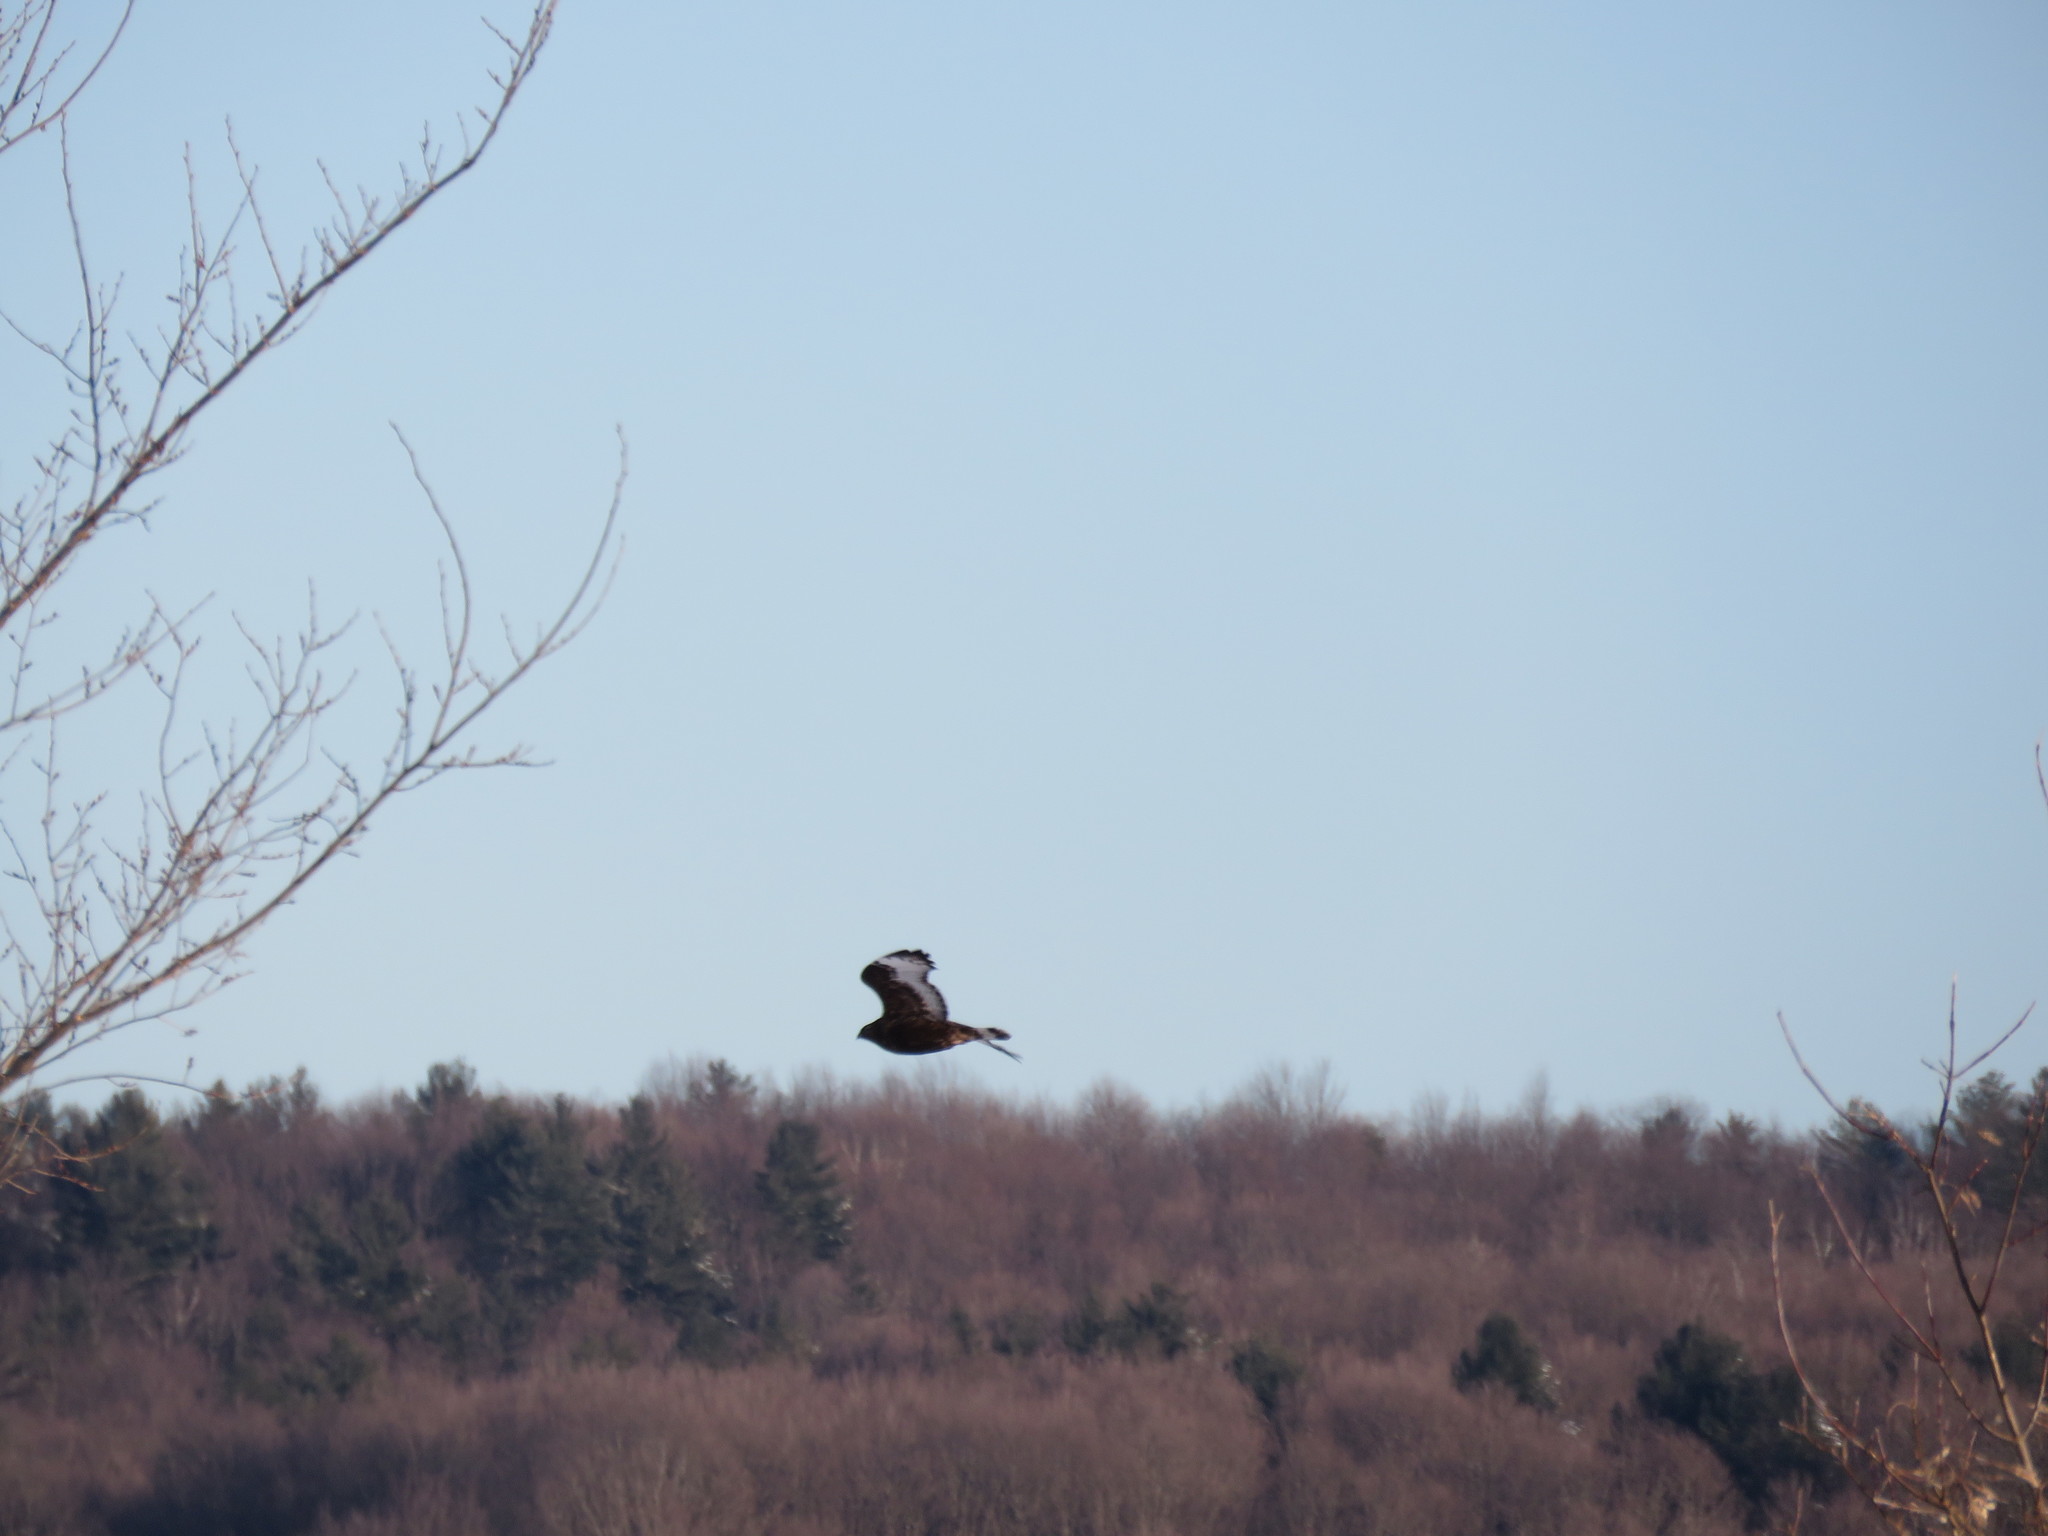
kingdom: Animalia
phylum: Chordata
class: Aves
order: Accipitriformes
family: Accipitridae
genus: Buteo
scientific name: Buteo lagopus
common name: Rough-legged buzzard
